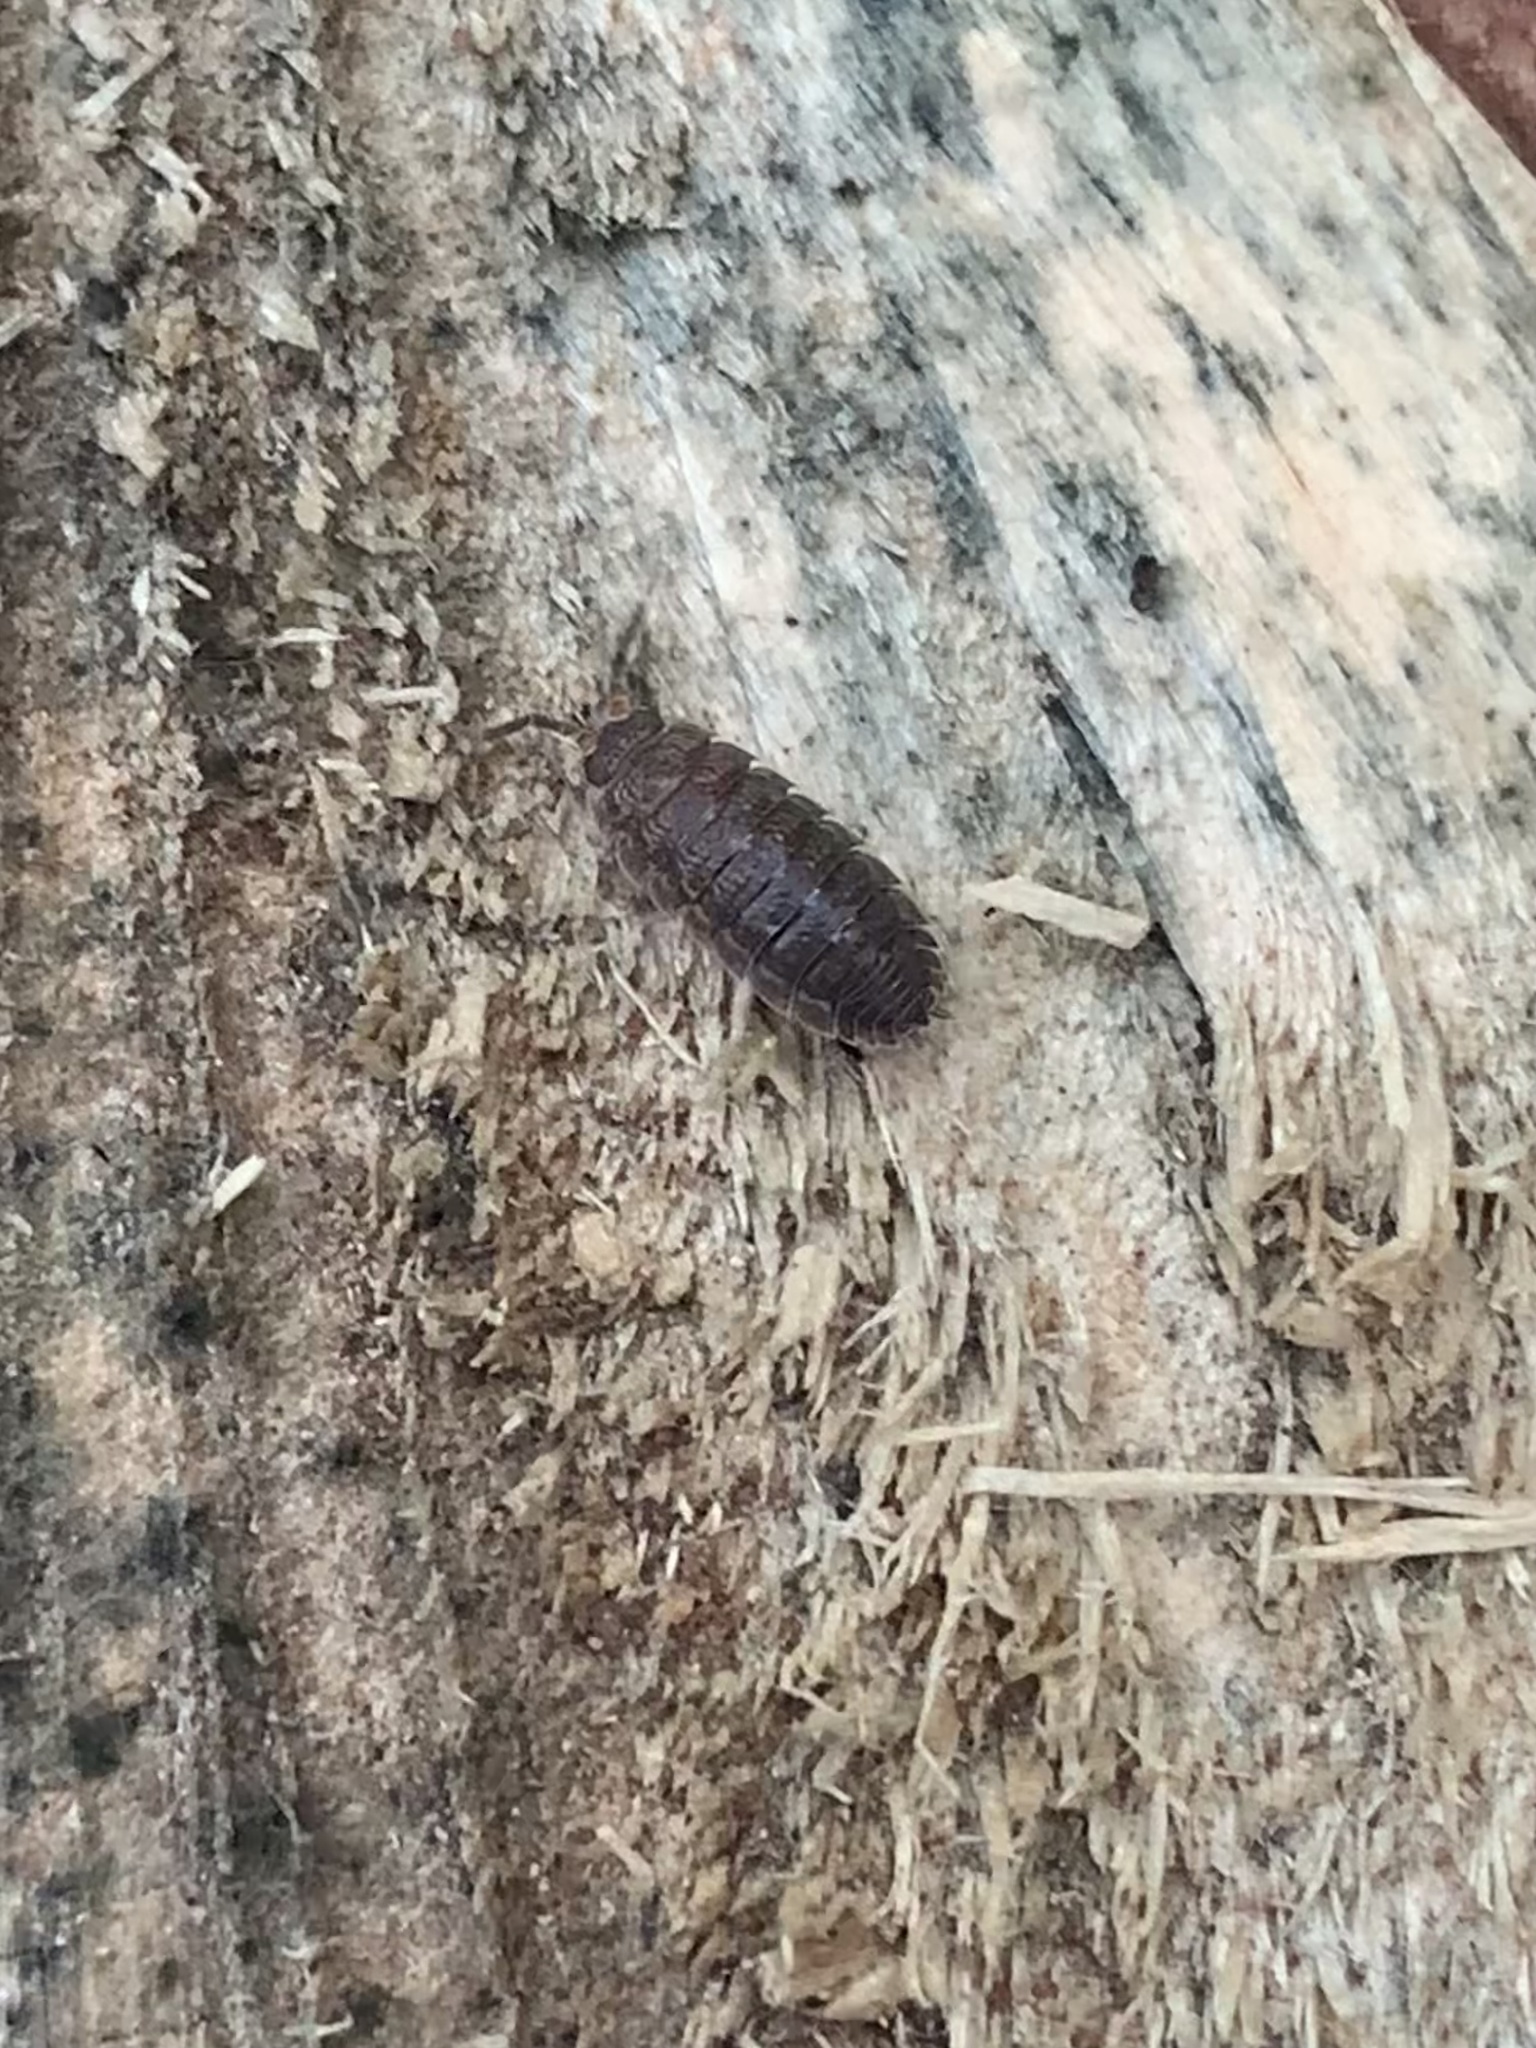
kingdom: Animalia
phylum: Arthropoda
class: Malacostraca
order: Isopoda
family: Porcellionidae
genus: Porcellio
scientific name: Porcellio scaber
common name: Common rough woodlouse
